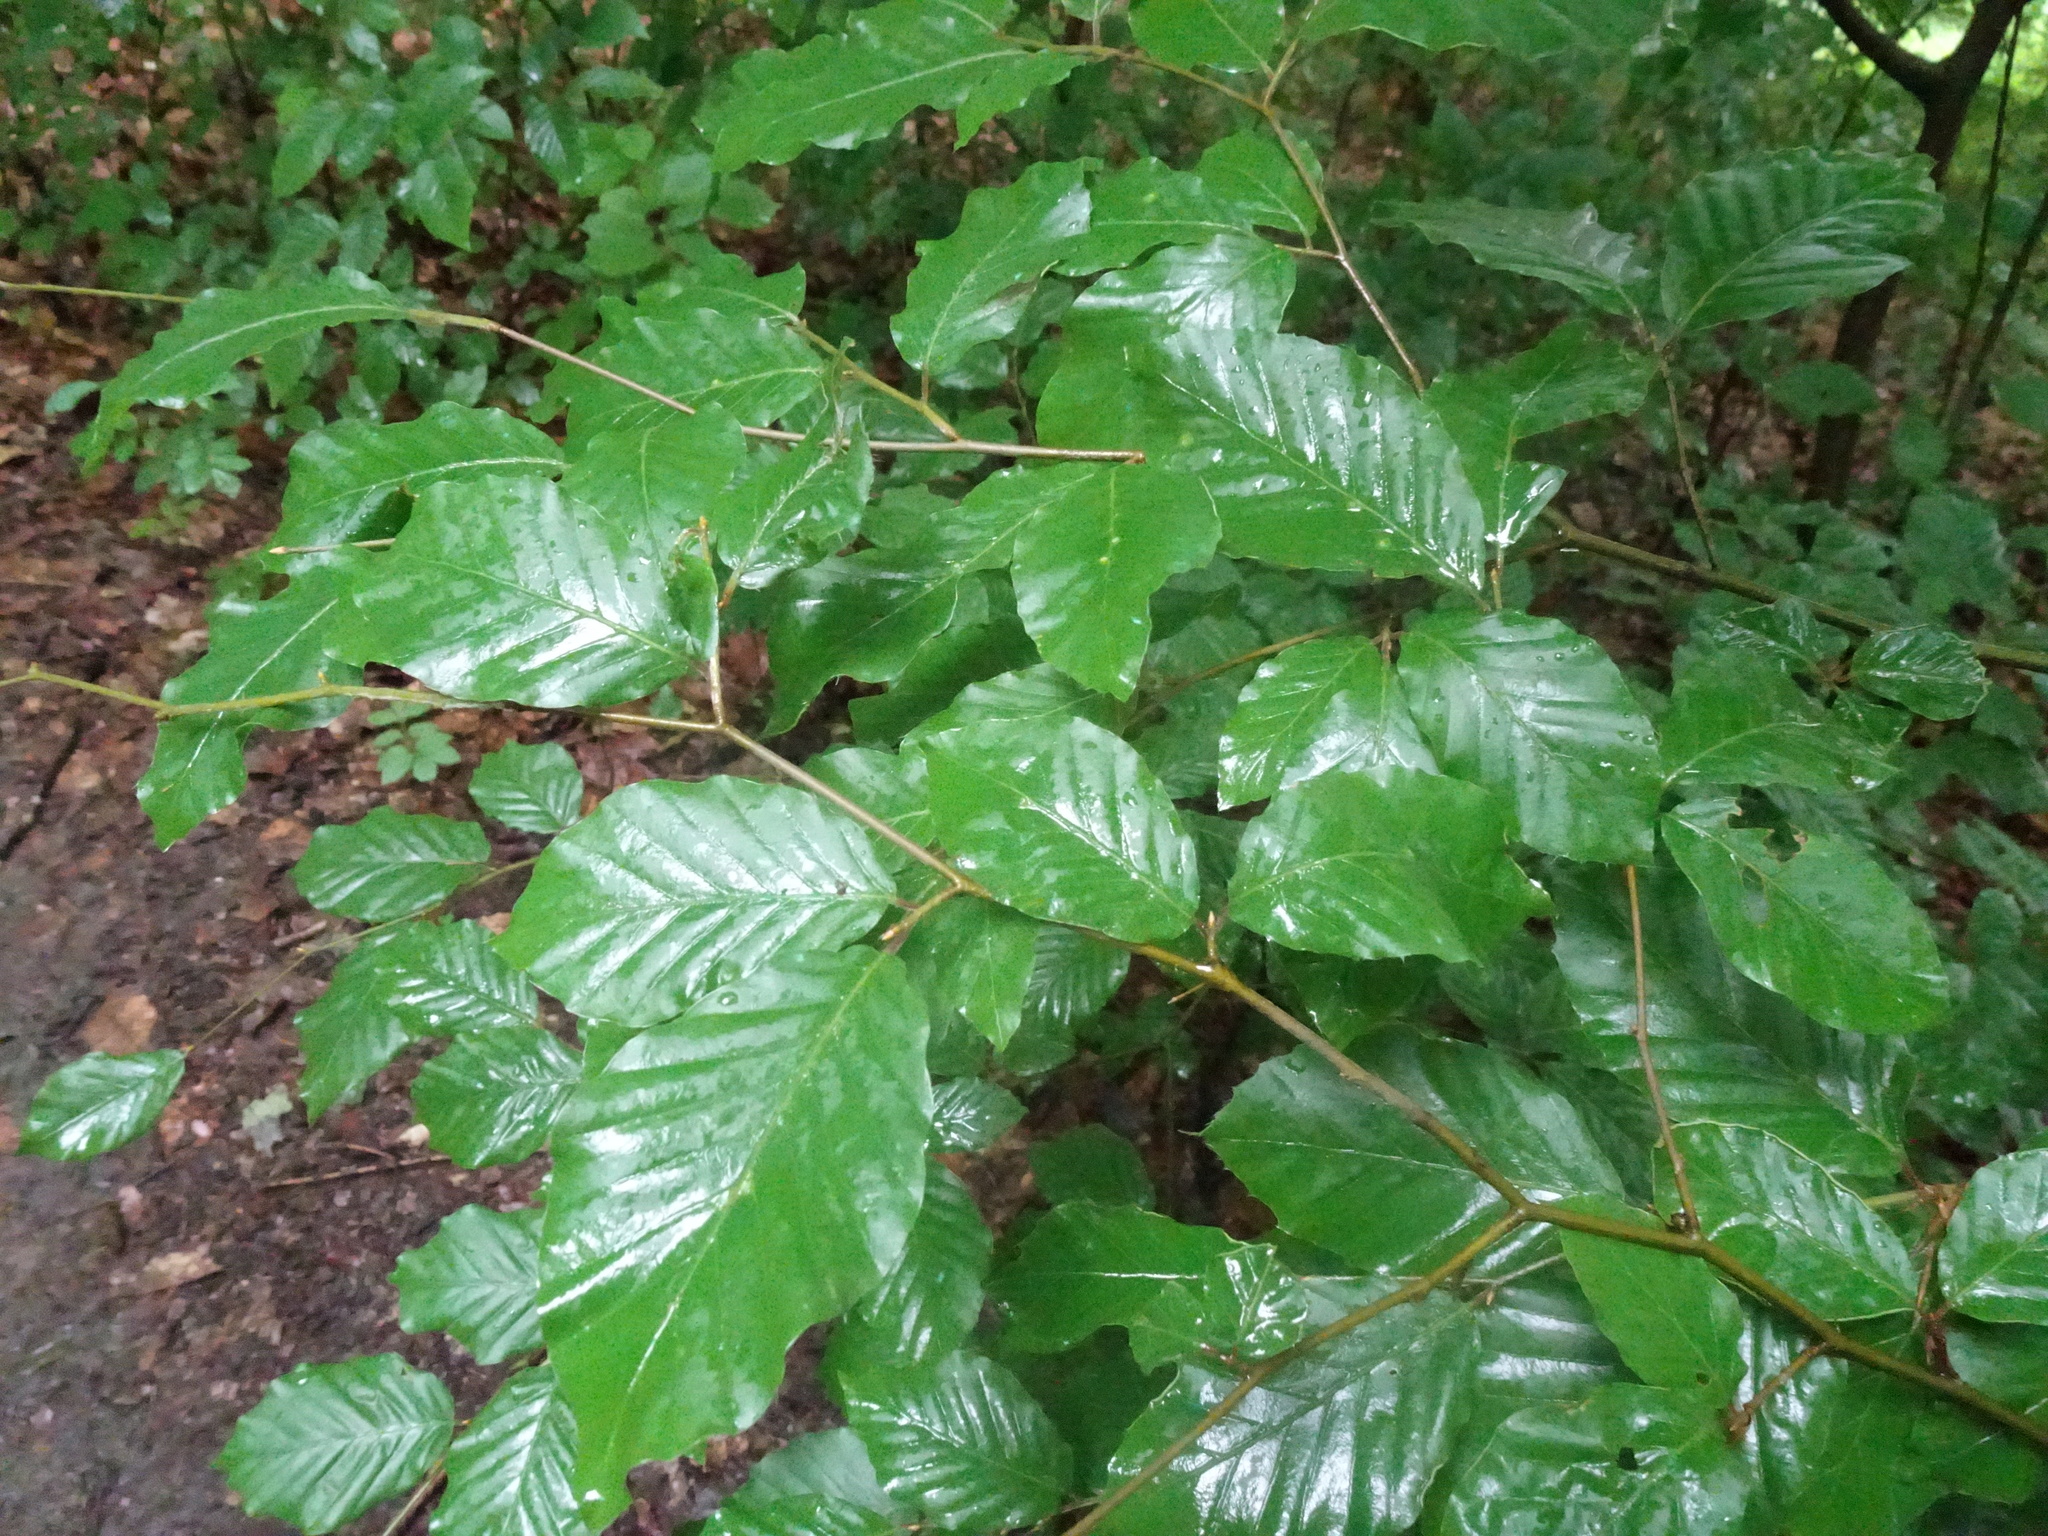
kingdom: Plantae
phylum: Tracheophyta
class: Magnoliopsida
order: Fagales
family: Fagaceae
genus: Fagus
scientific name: Fagus sylvatica
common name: Beech
